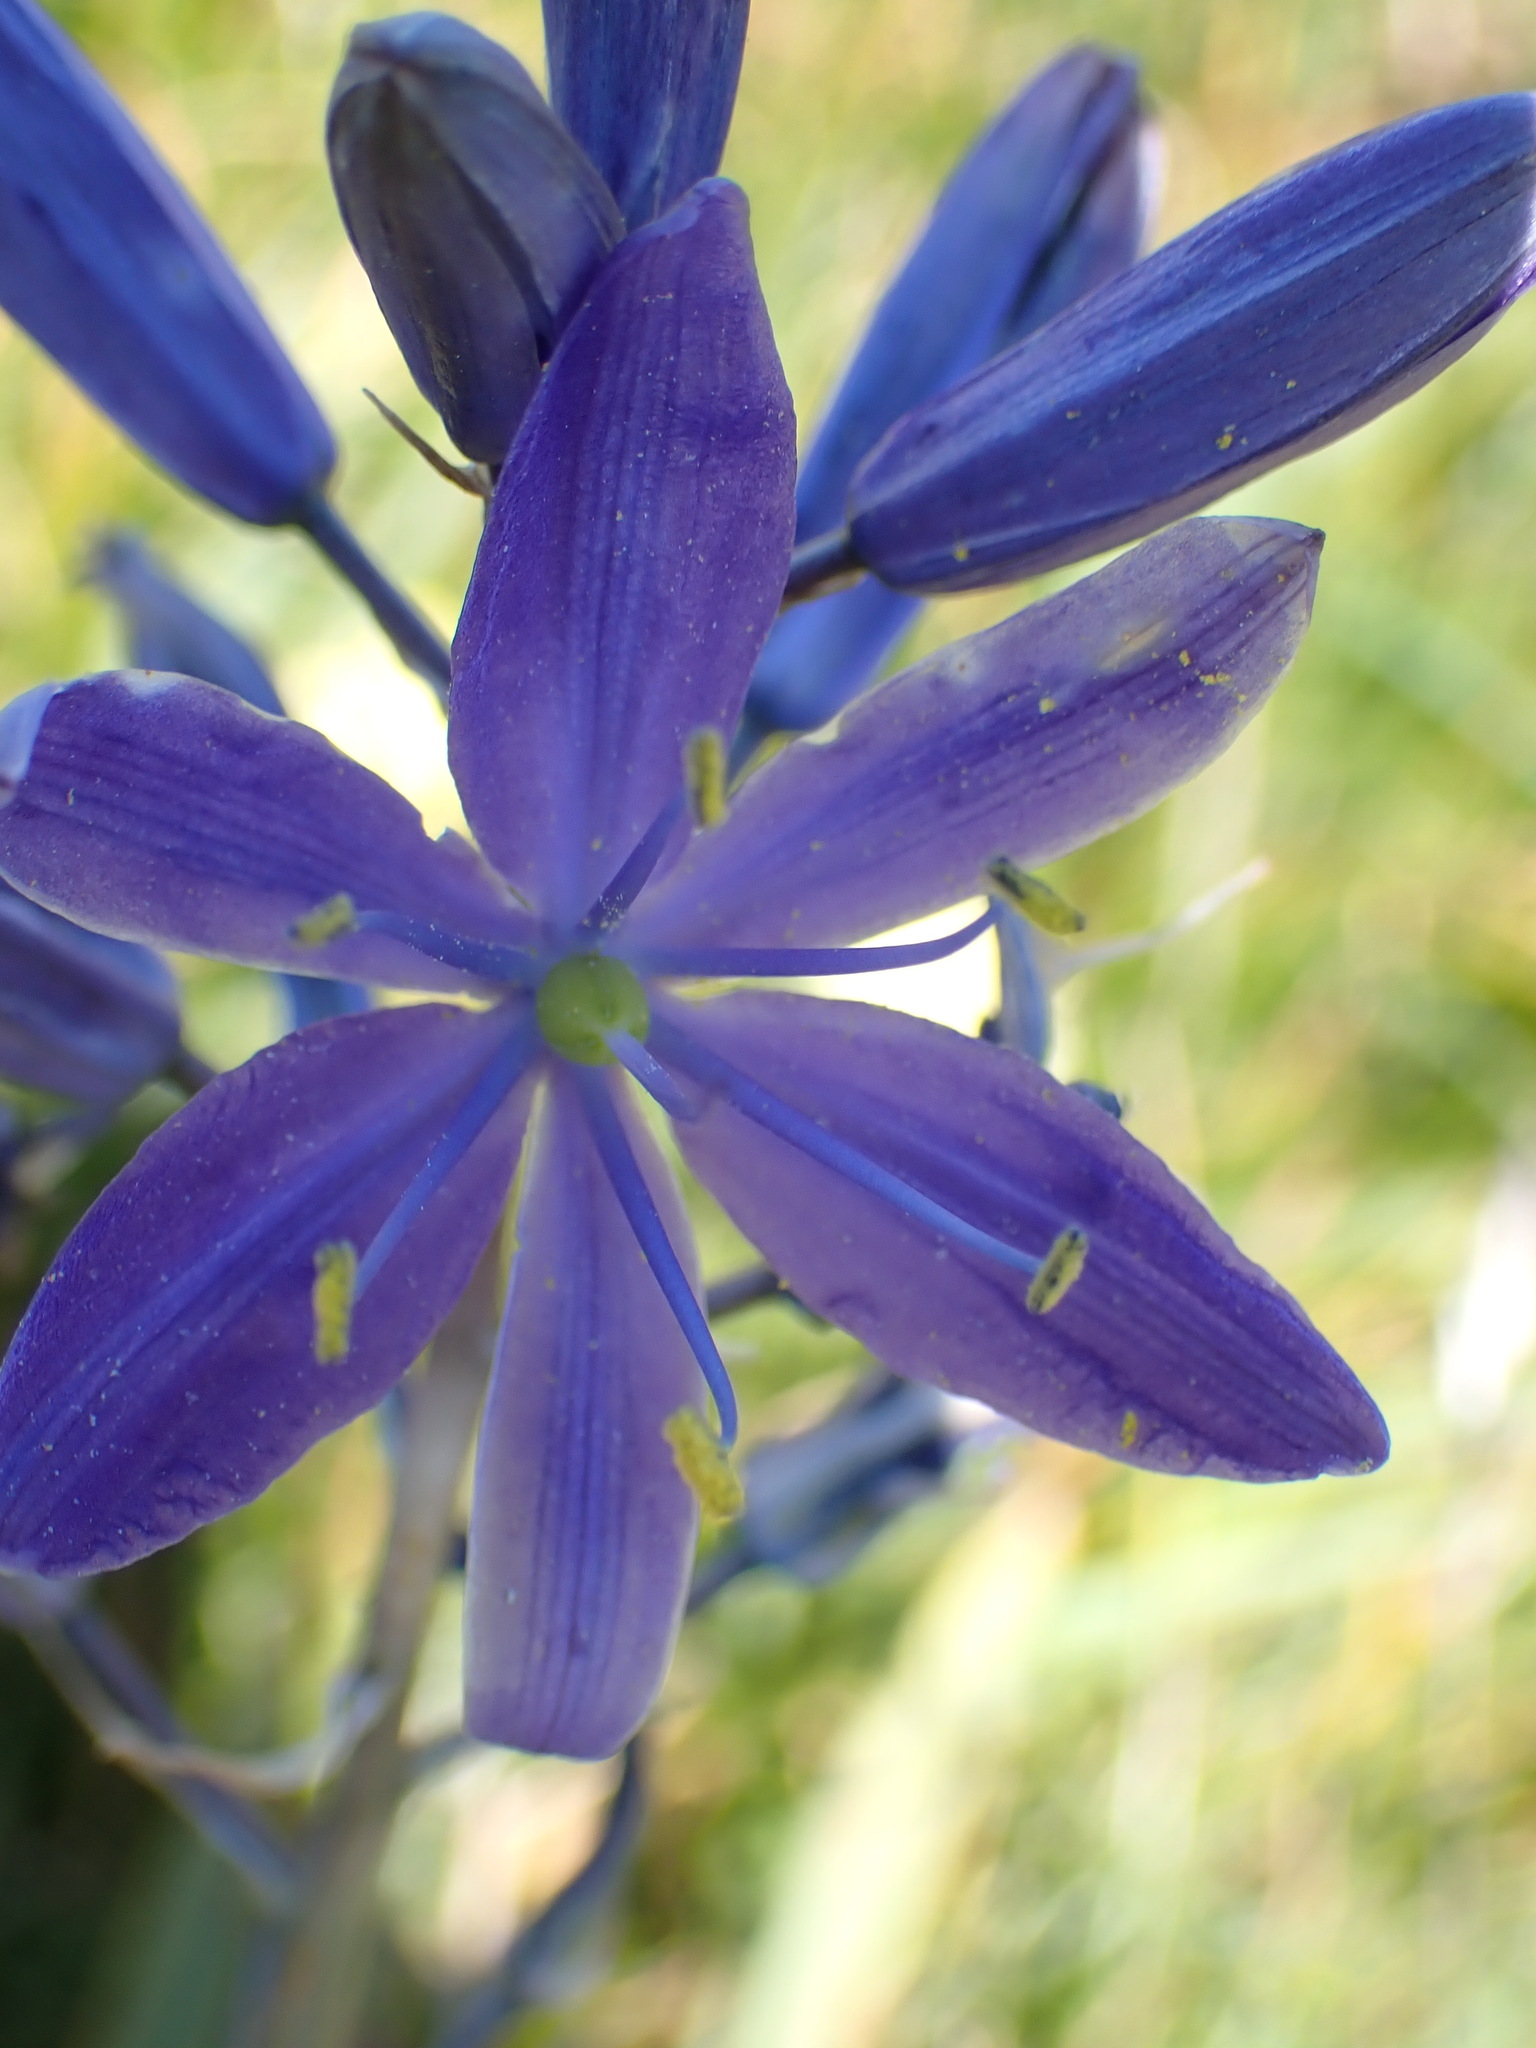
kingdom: Plantae
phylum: Tracheophyta
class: Liliopsida
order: Asparagales
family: Asparagaceae
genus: Camassia
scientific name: Camassia leichtlinii
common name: Leichtlin's camas
